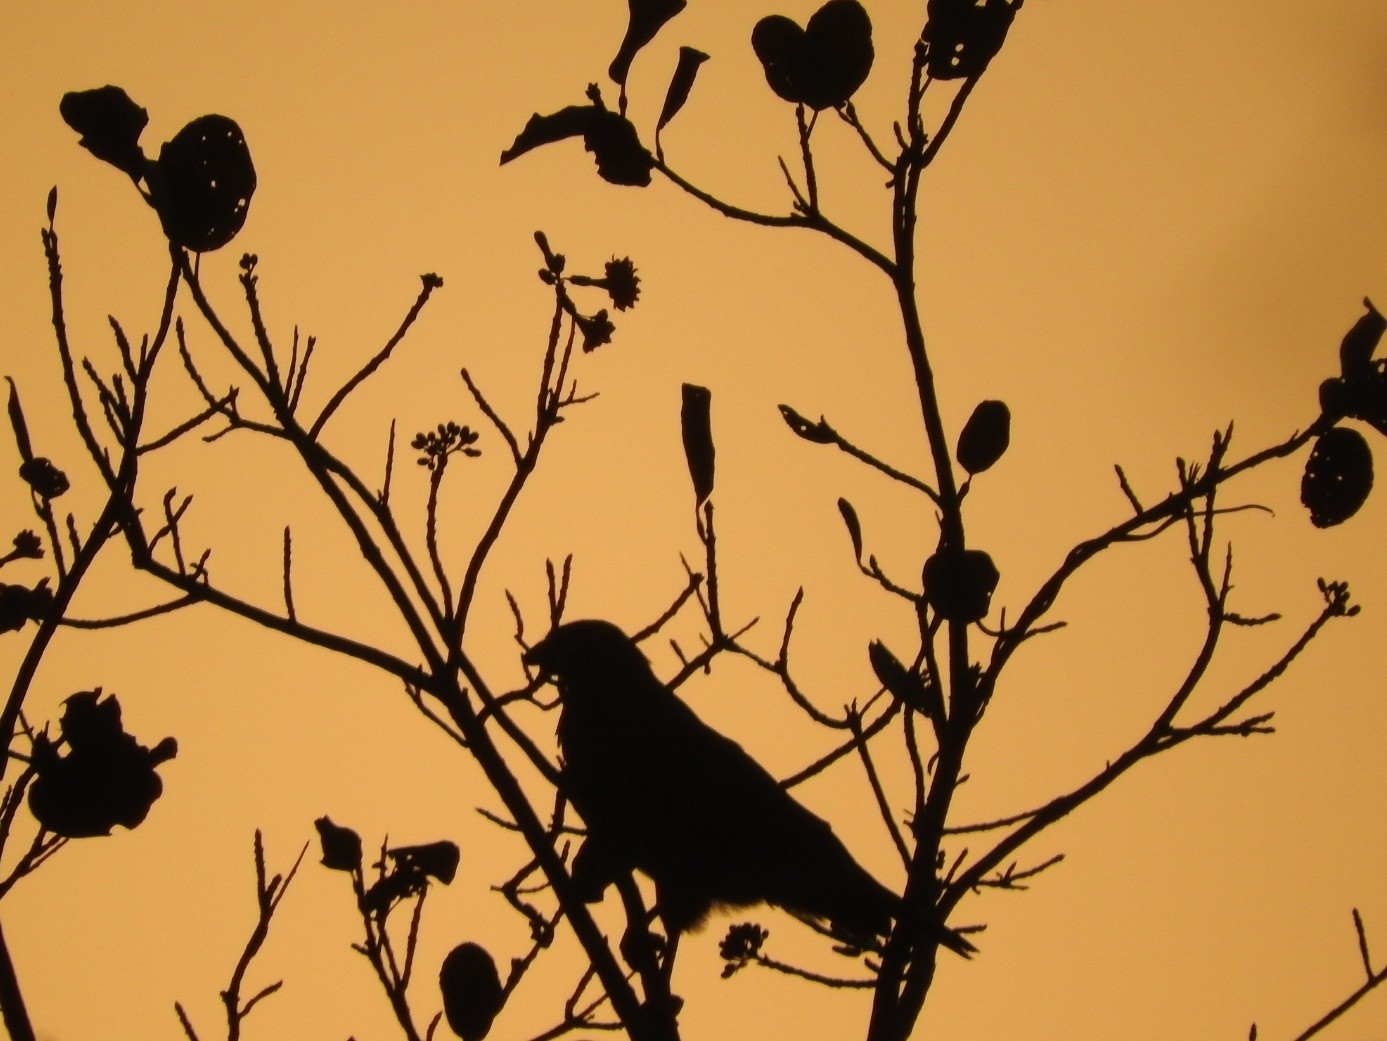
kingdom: Animalia
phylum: Chordata
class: Aves
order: Accipitriformes
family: Accipitridae
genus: Rupornis
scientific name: Rupornis magnirostris
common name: Roadside hawk
